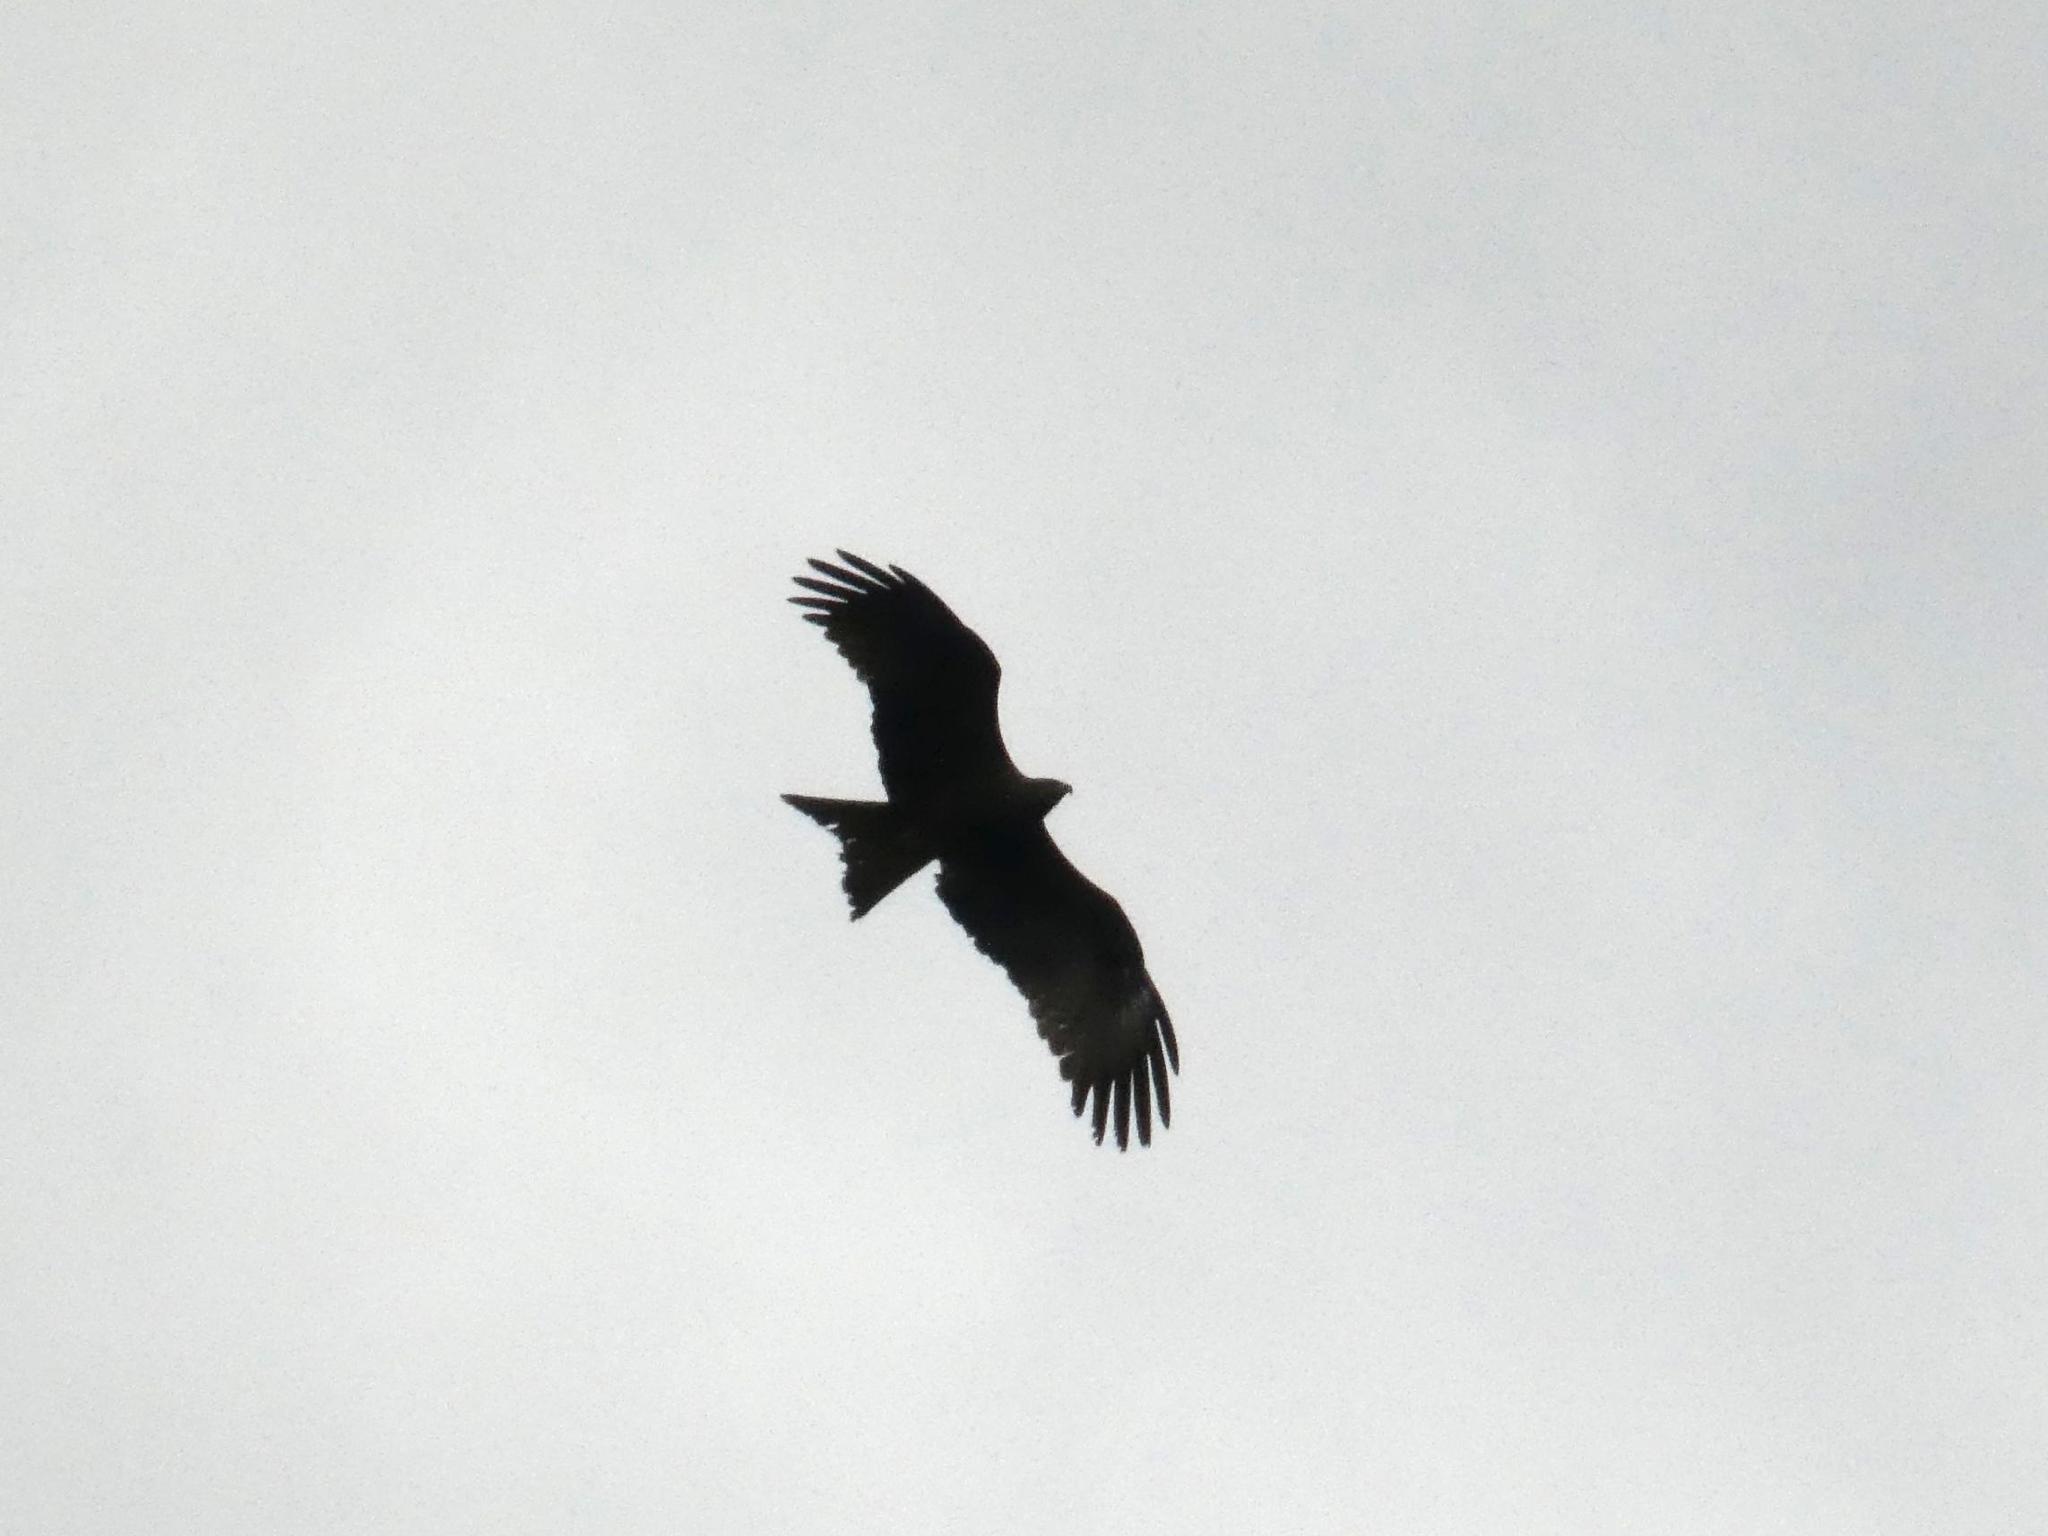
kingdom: Animalia
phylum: Chordata
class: Aves
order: Accipitriformes
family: Accipitridae
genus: Milvus
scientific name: Milvus migrans
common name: Black kite
